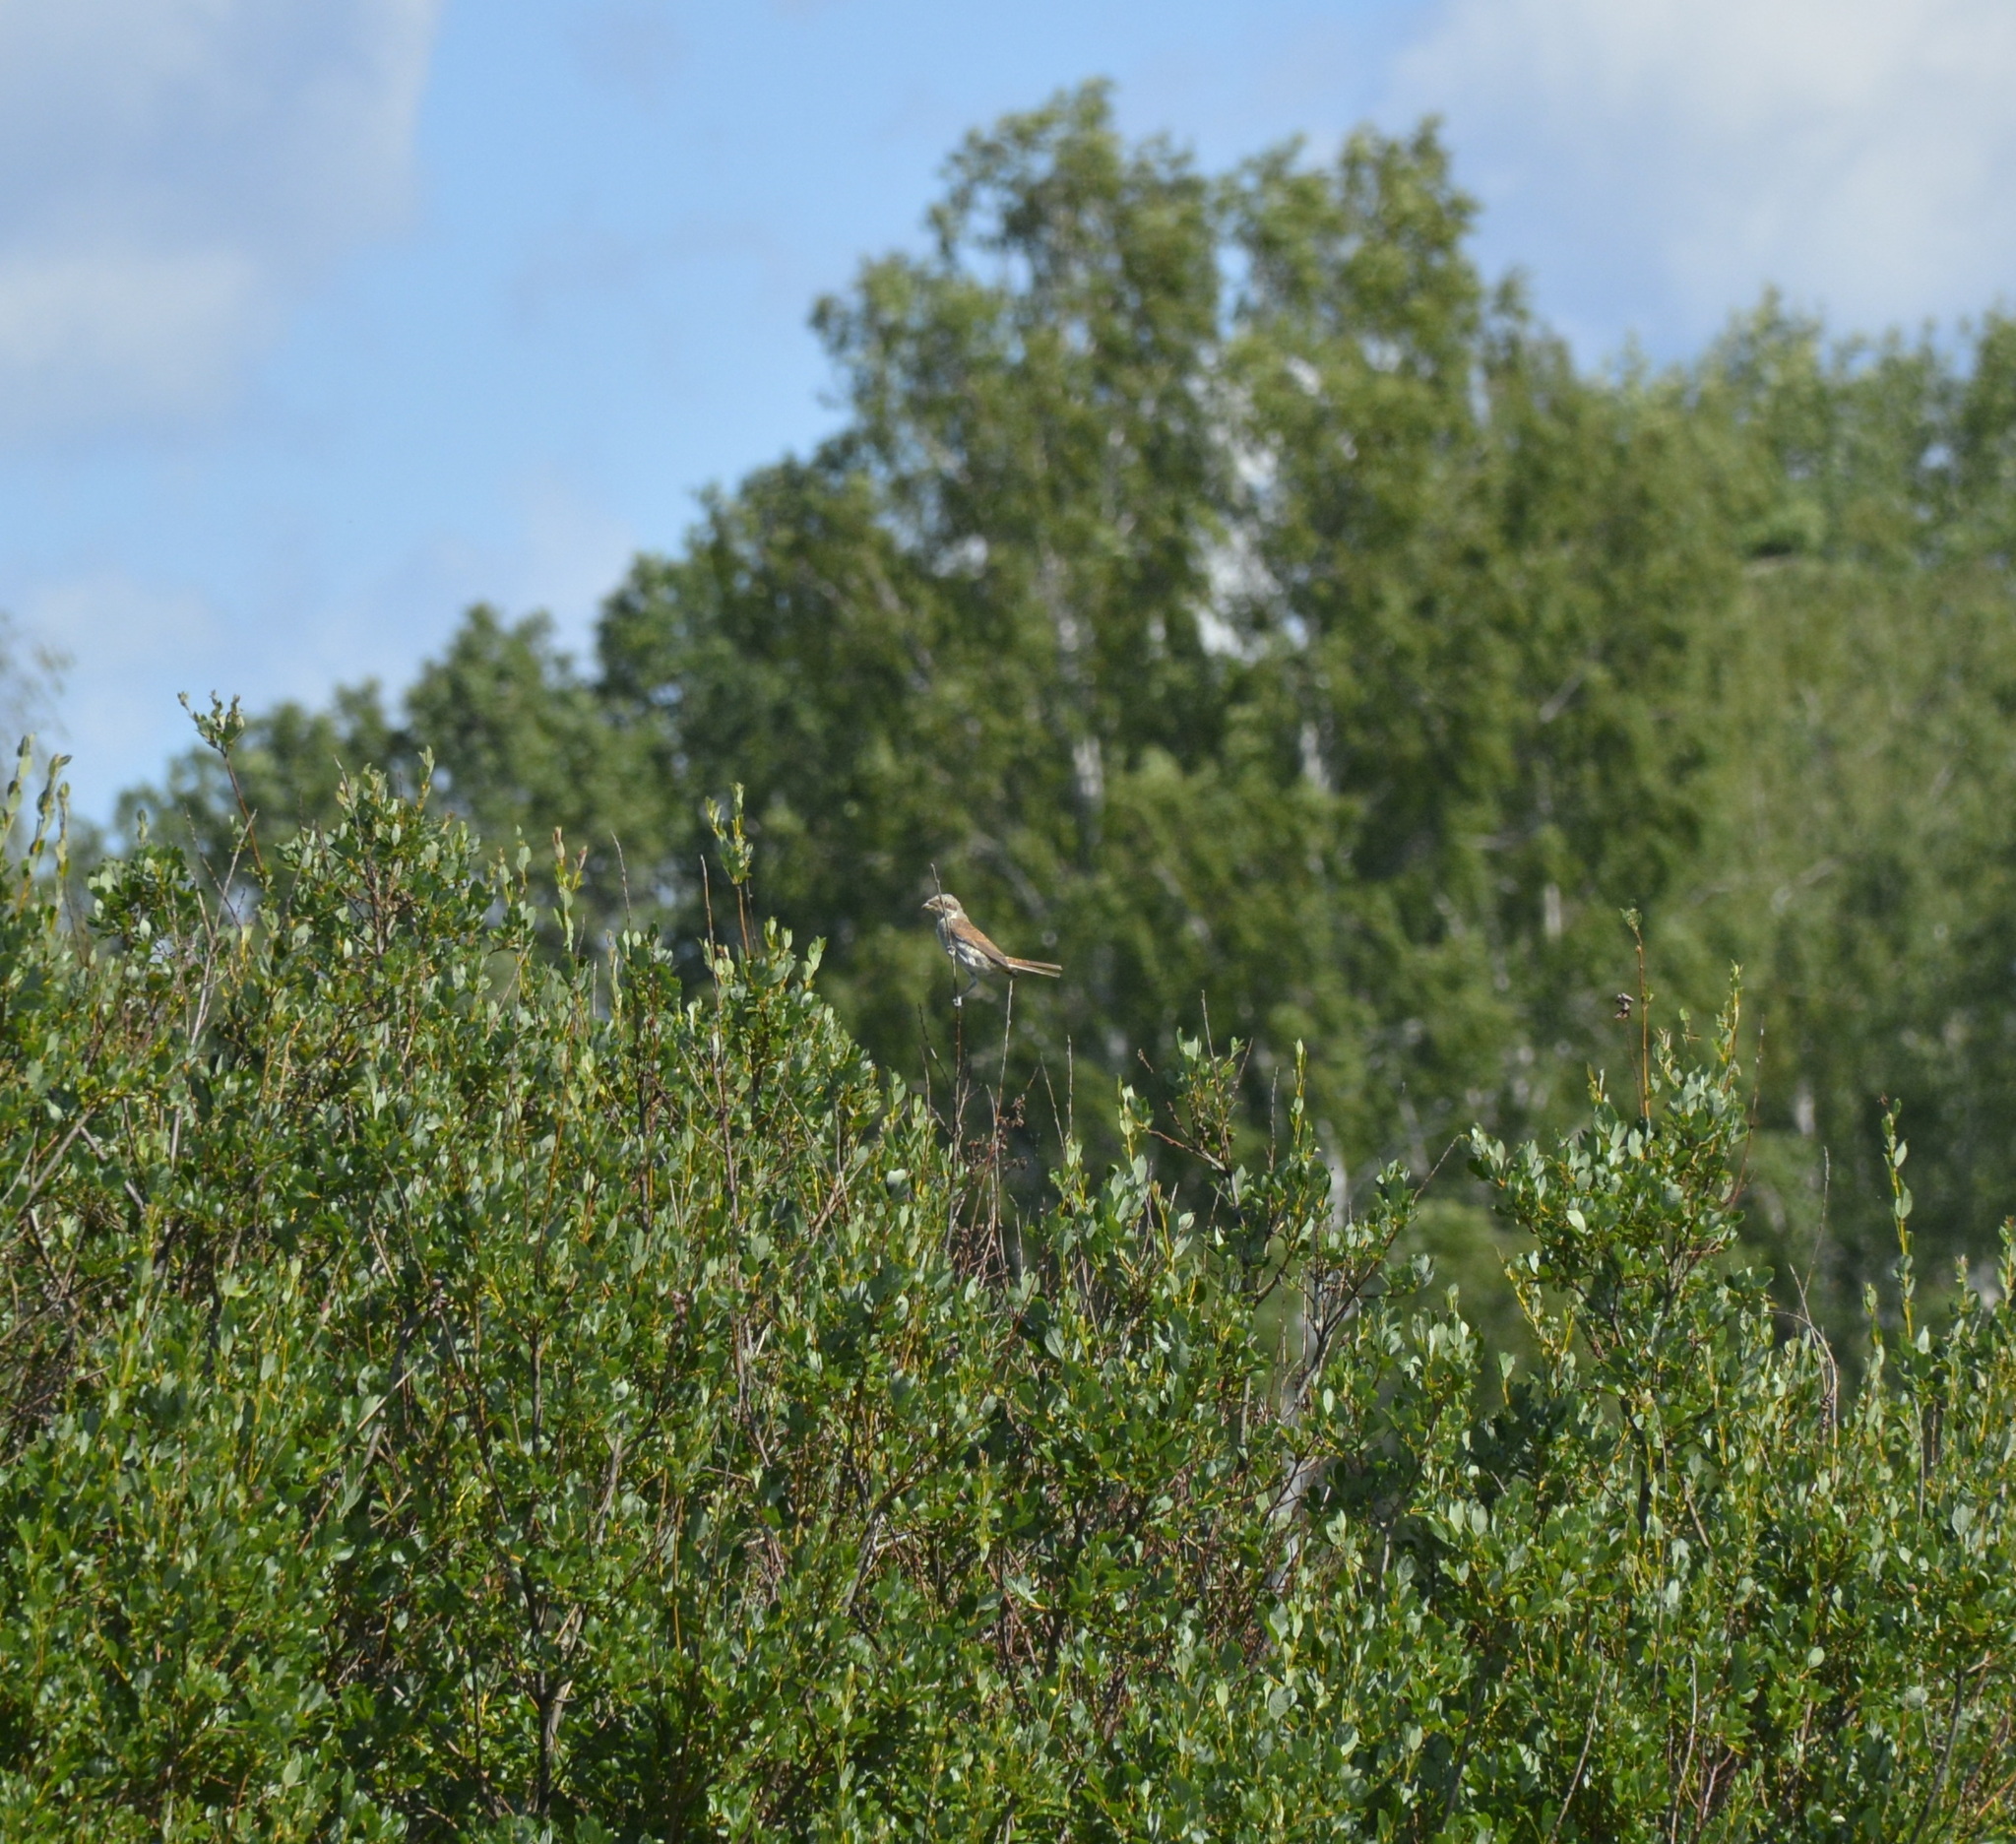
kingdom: Animalia
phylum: Chordata
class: Aves
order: Passeriformes
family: Laniidae
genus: Lanius
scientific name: Lanius collurio
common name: Red-backed shrike
